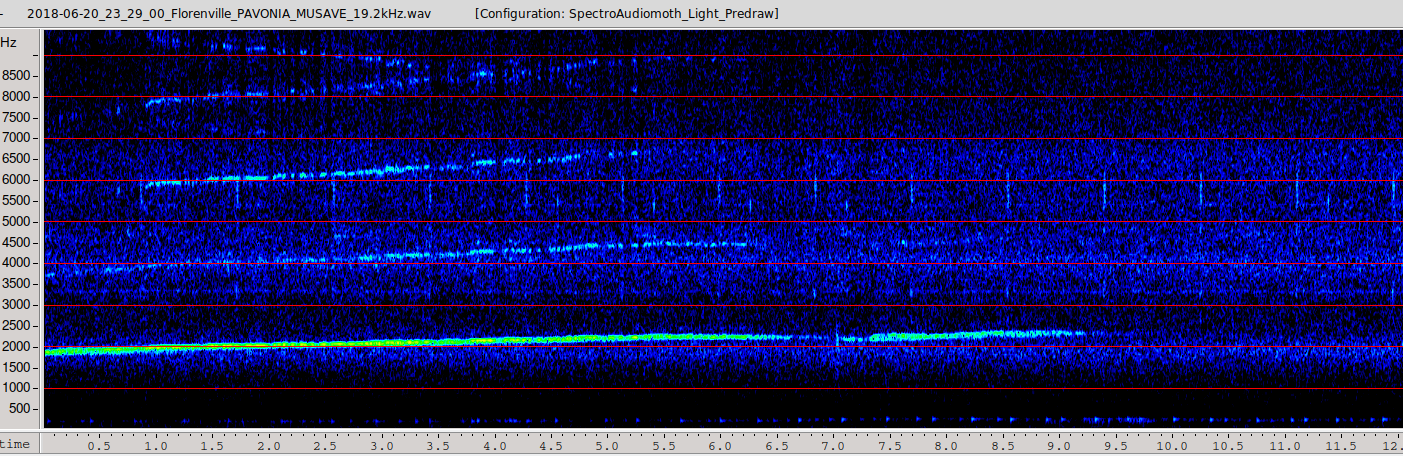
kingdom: Animalia
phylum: Chordata
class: Mammalia
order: Rodentia
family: Gliridae
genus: Muscardinus
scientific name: Muscardinus avellanarius
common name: Hazel dormouse
